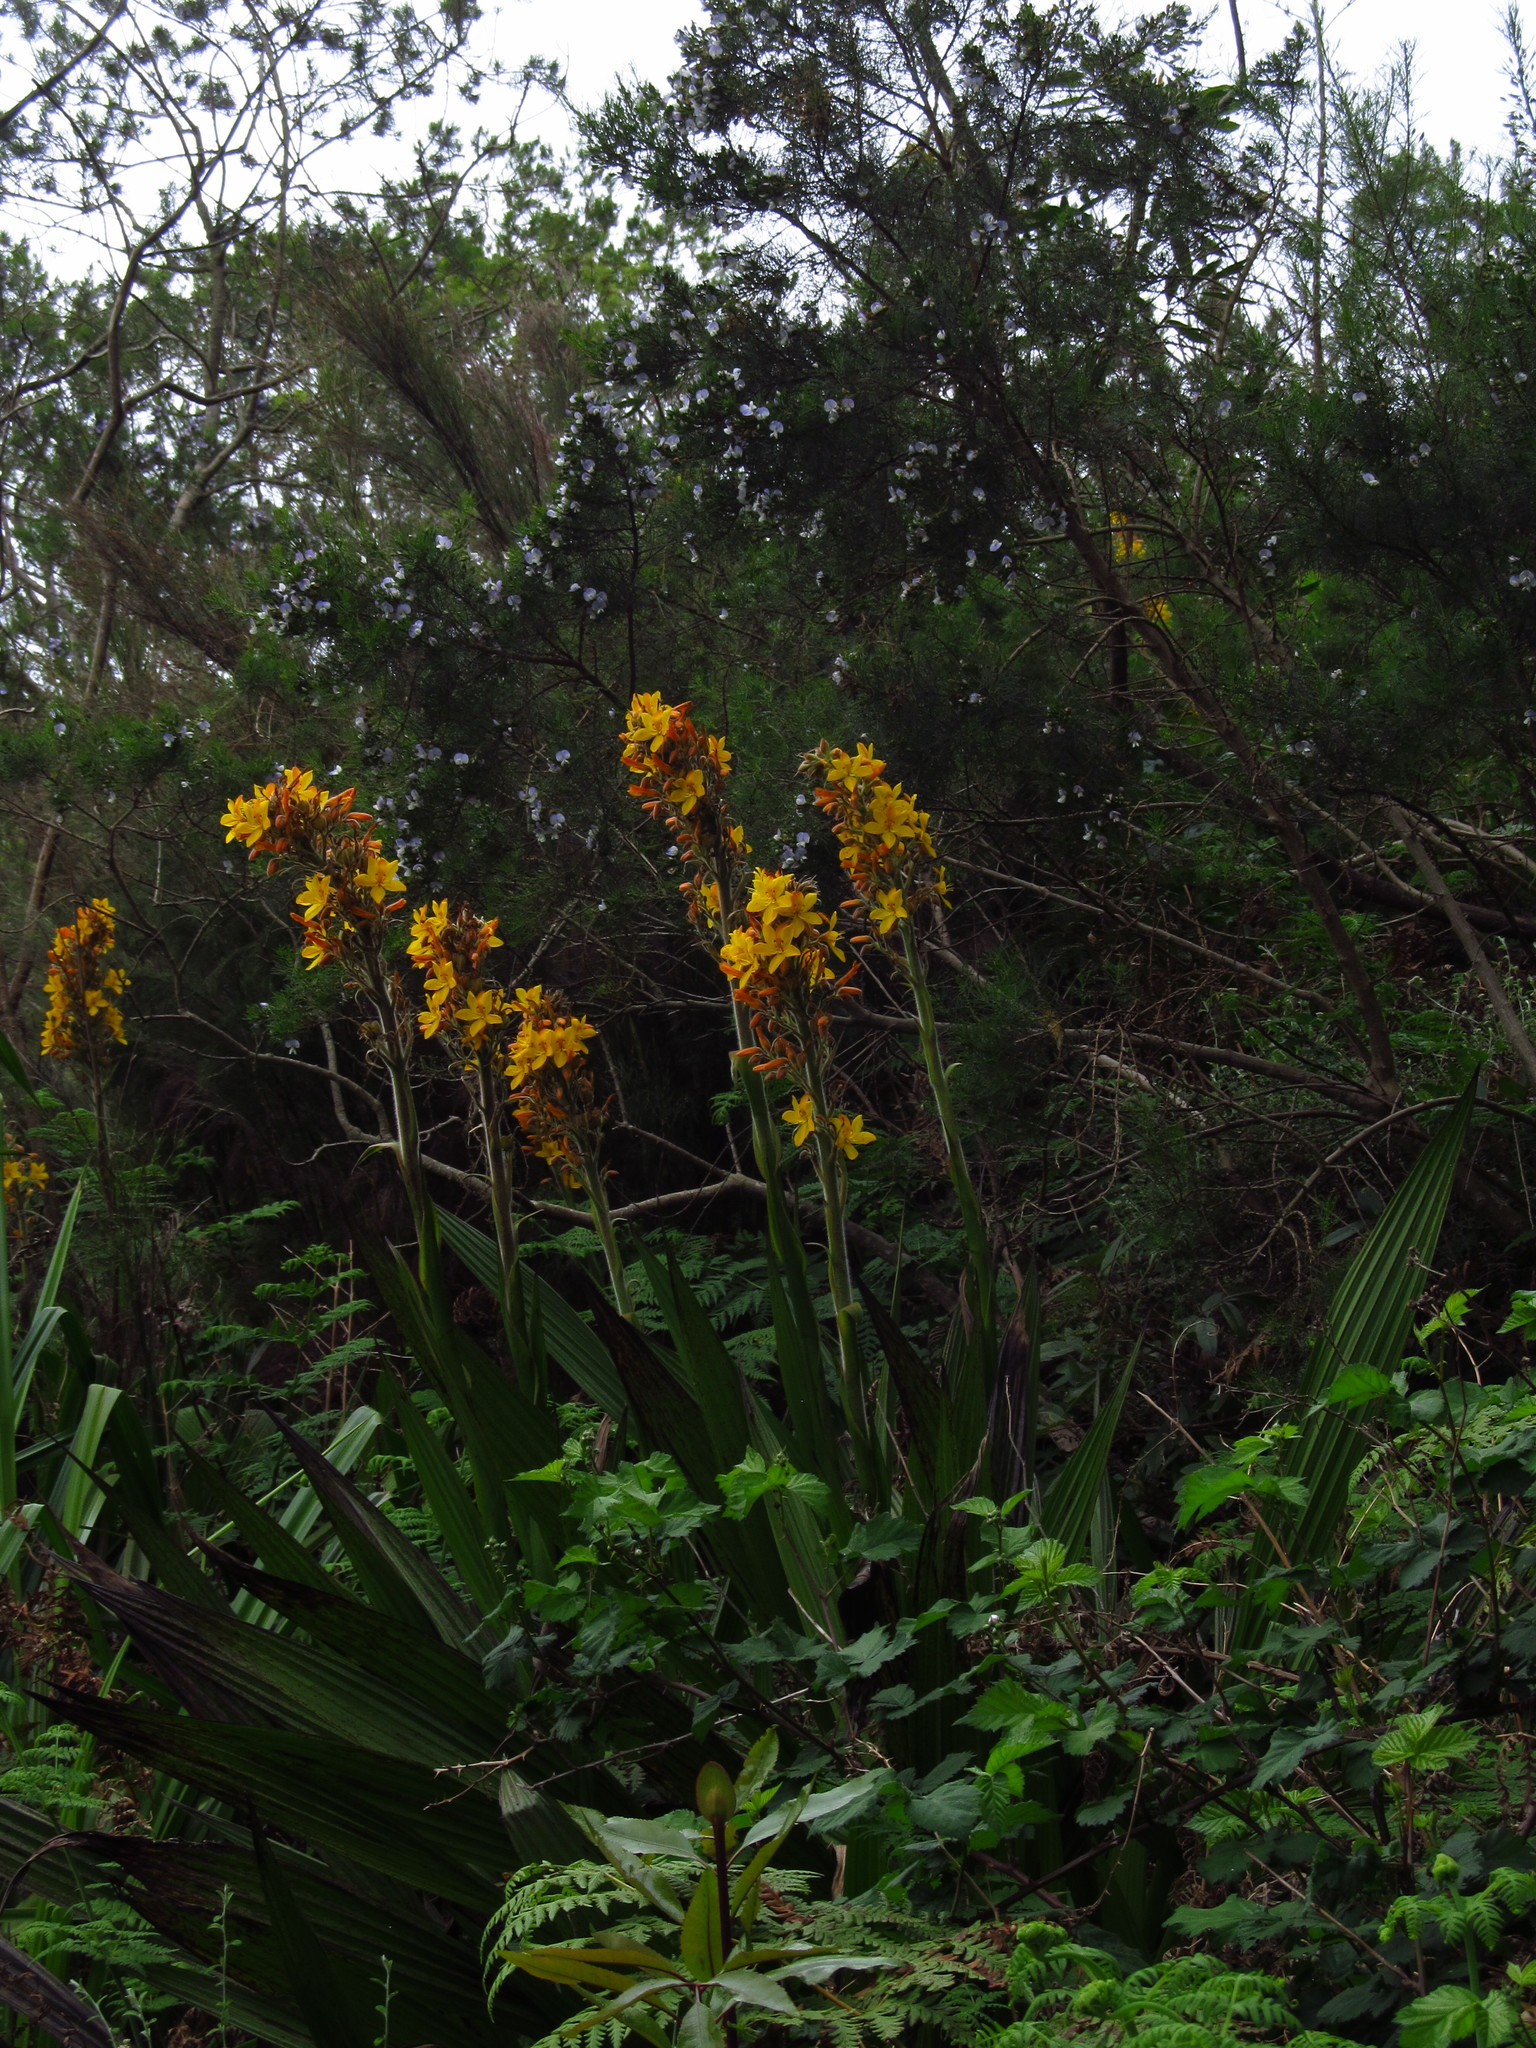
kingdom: Plantae
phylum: Tracheophyta
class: Liliopsida
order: Commelinales
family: Haemodoraceae
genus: Wachendorfia
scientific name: Wachendorfia thyrsiflora
